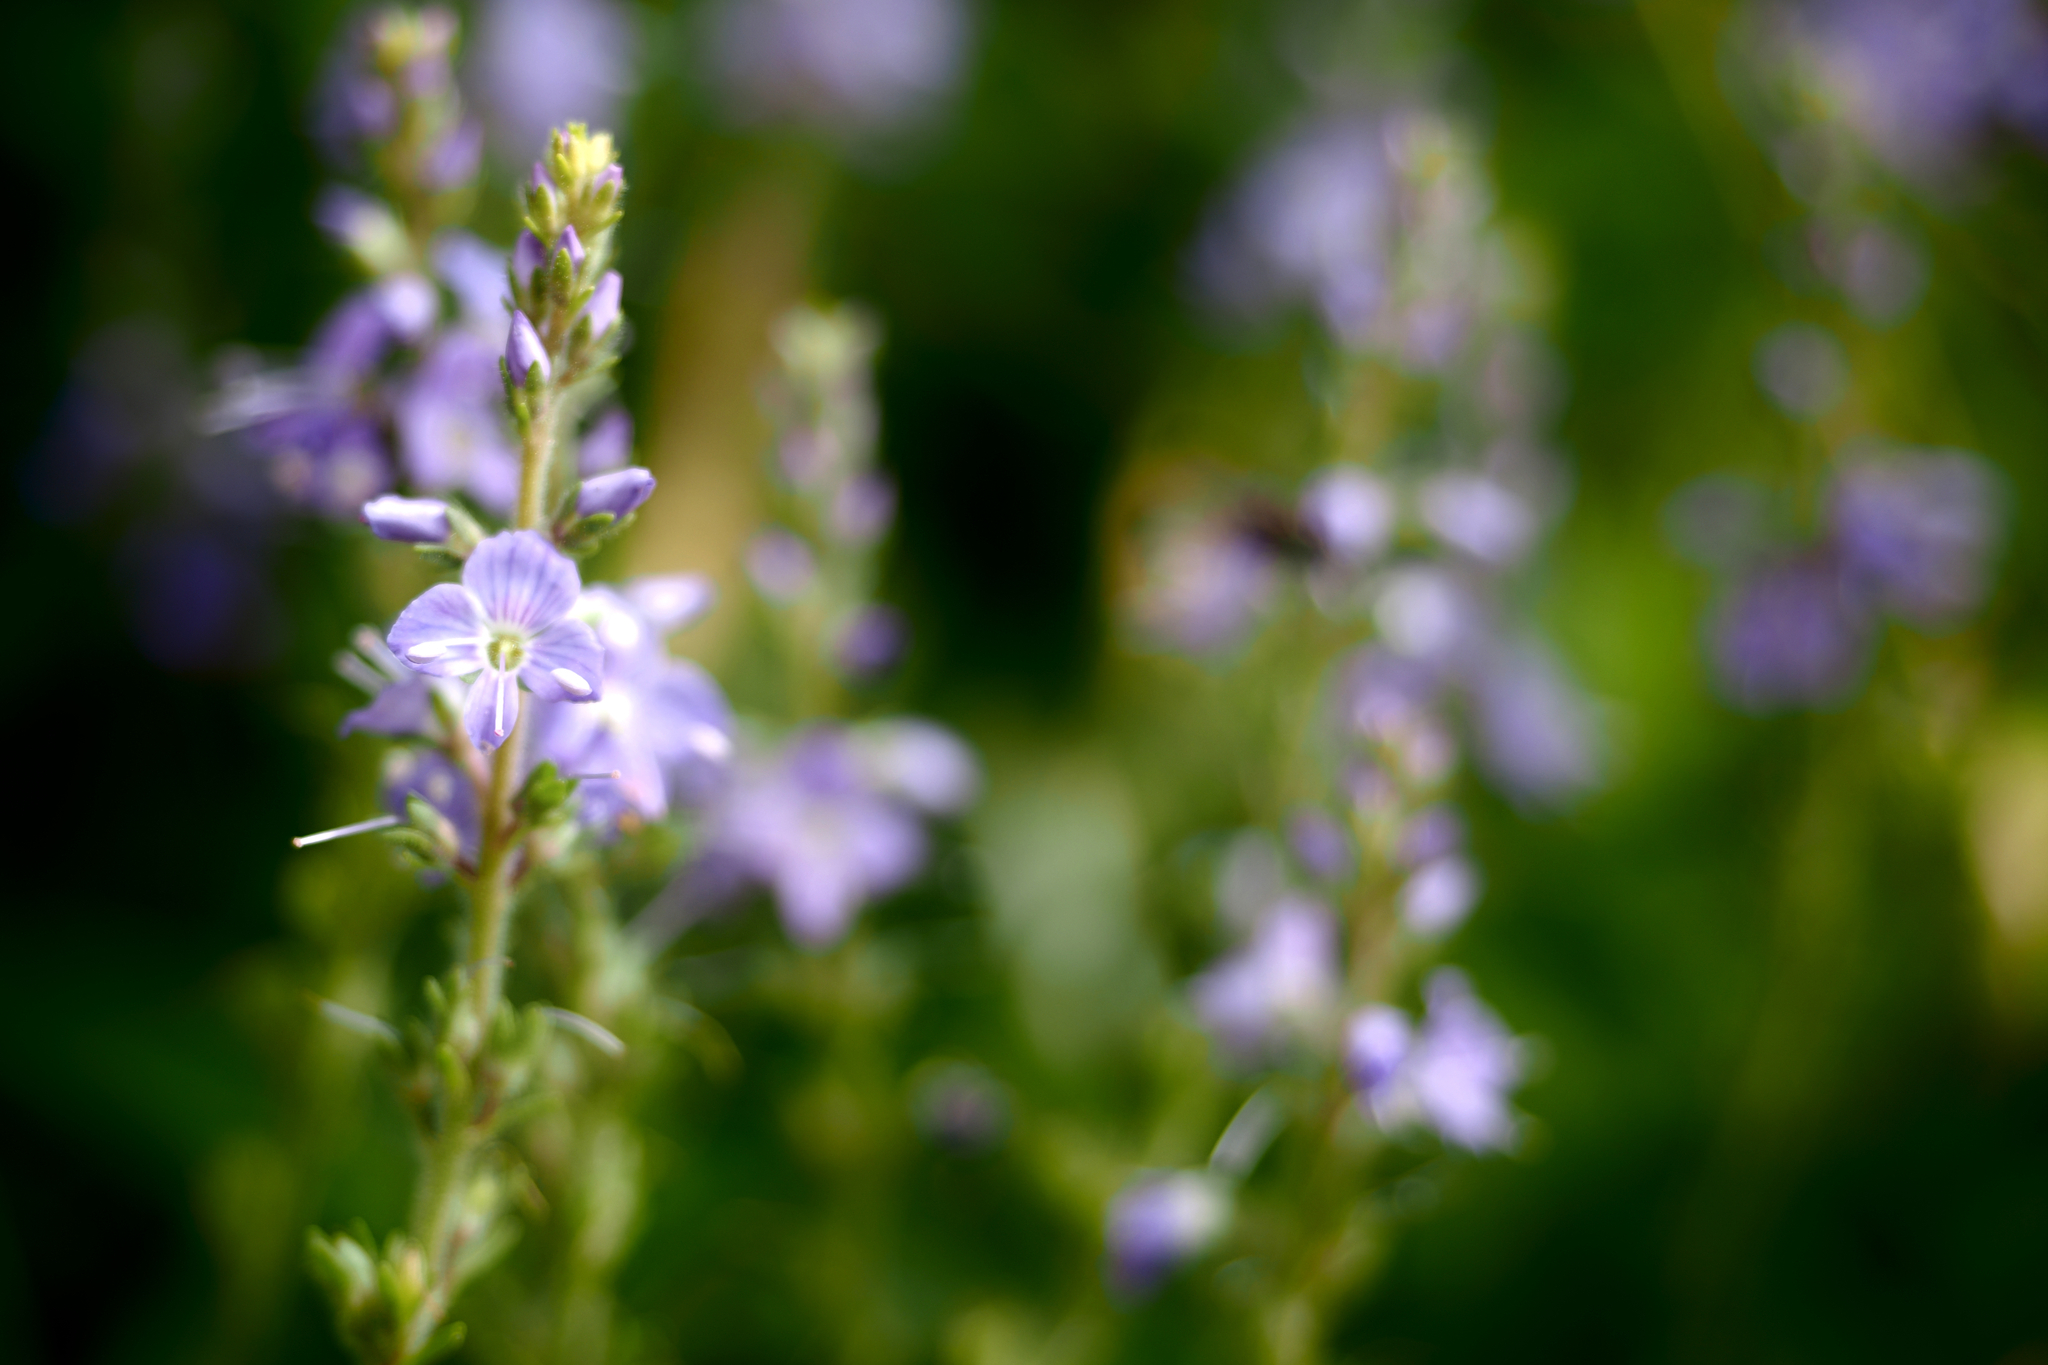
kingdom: Plantae
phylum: Tracheophyta
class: Magnoliopsida
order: Lamiales
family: Plantaginaceae
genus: Veronica
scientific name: Veronica officinalis
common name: Common speedwell
